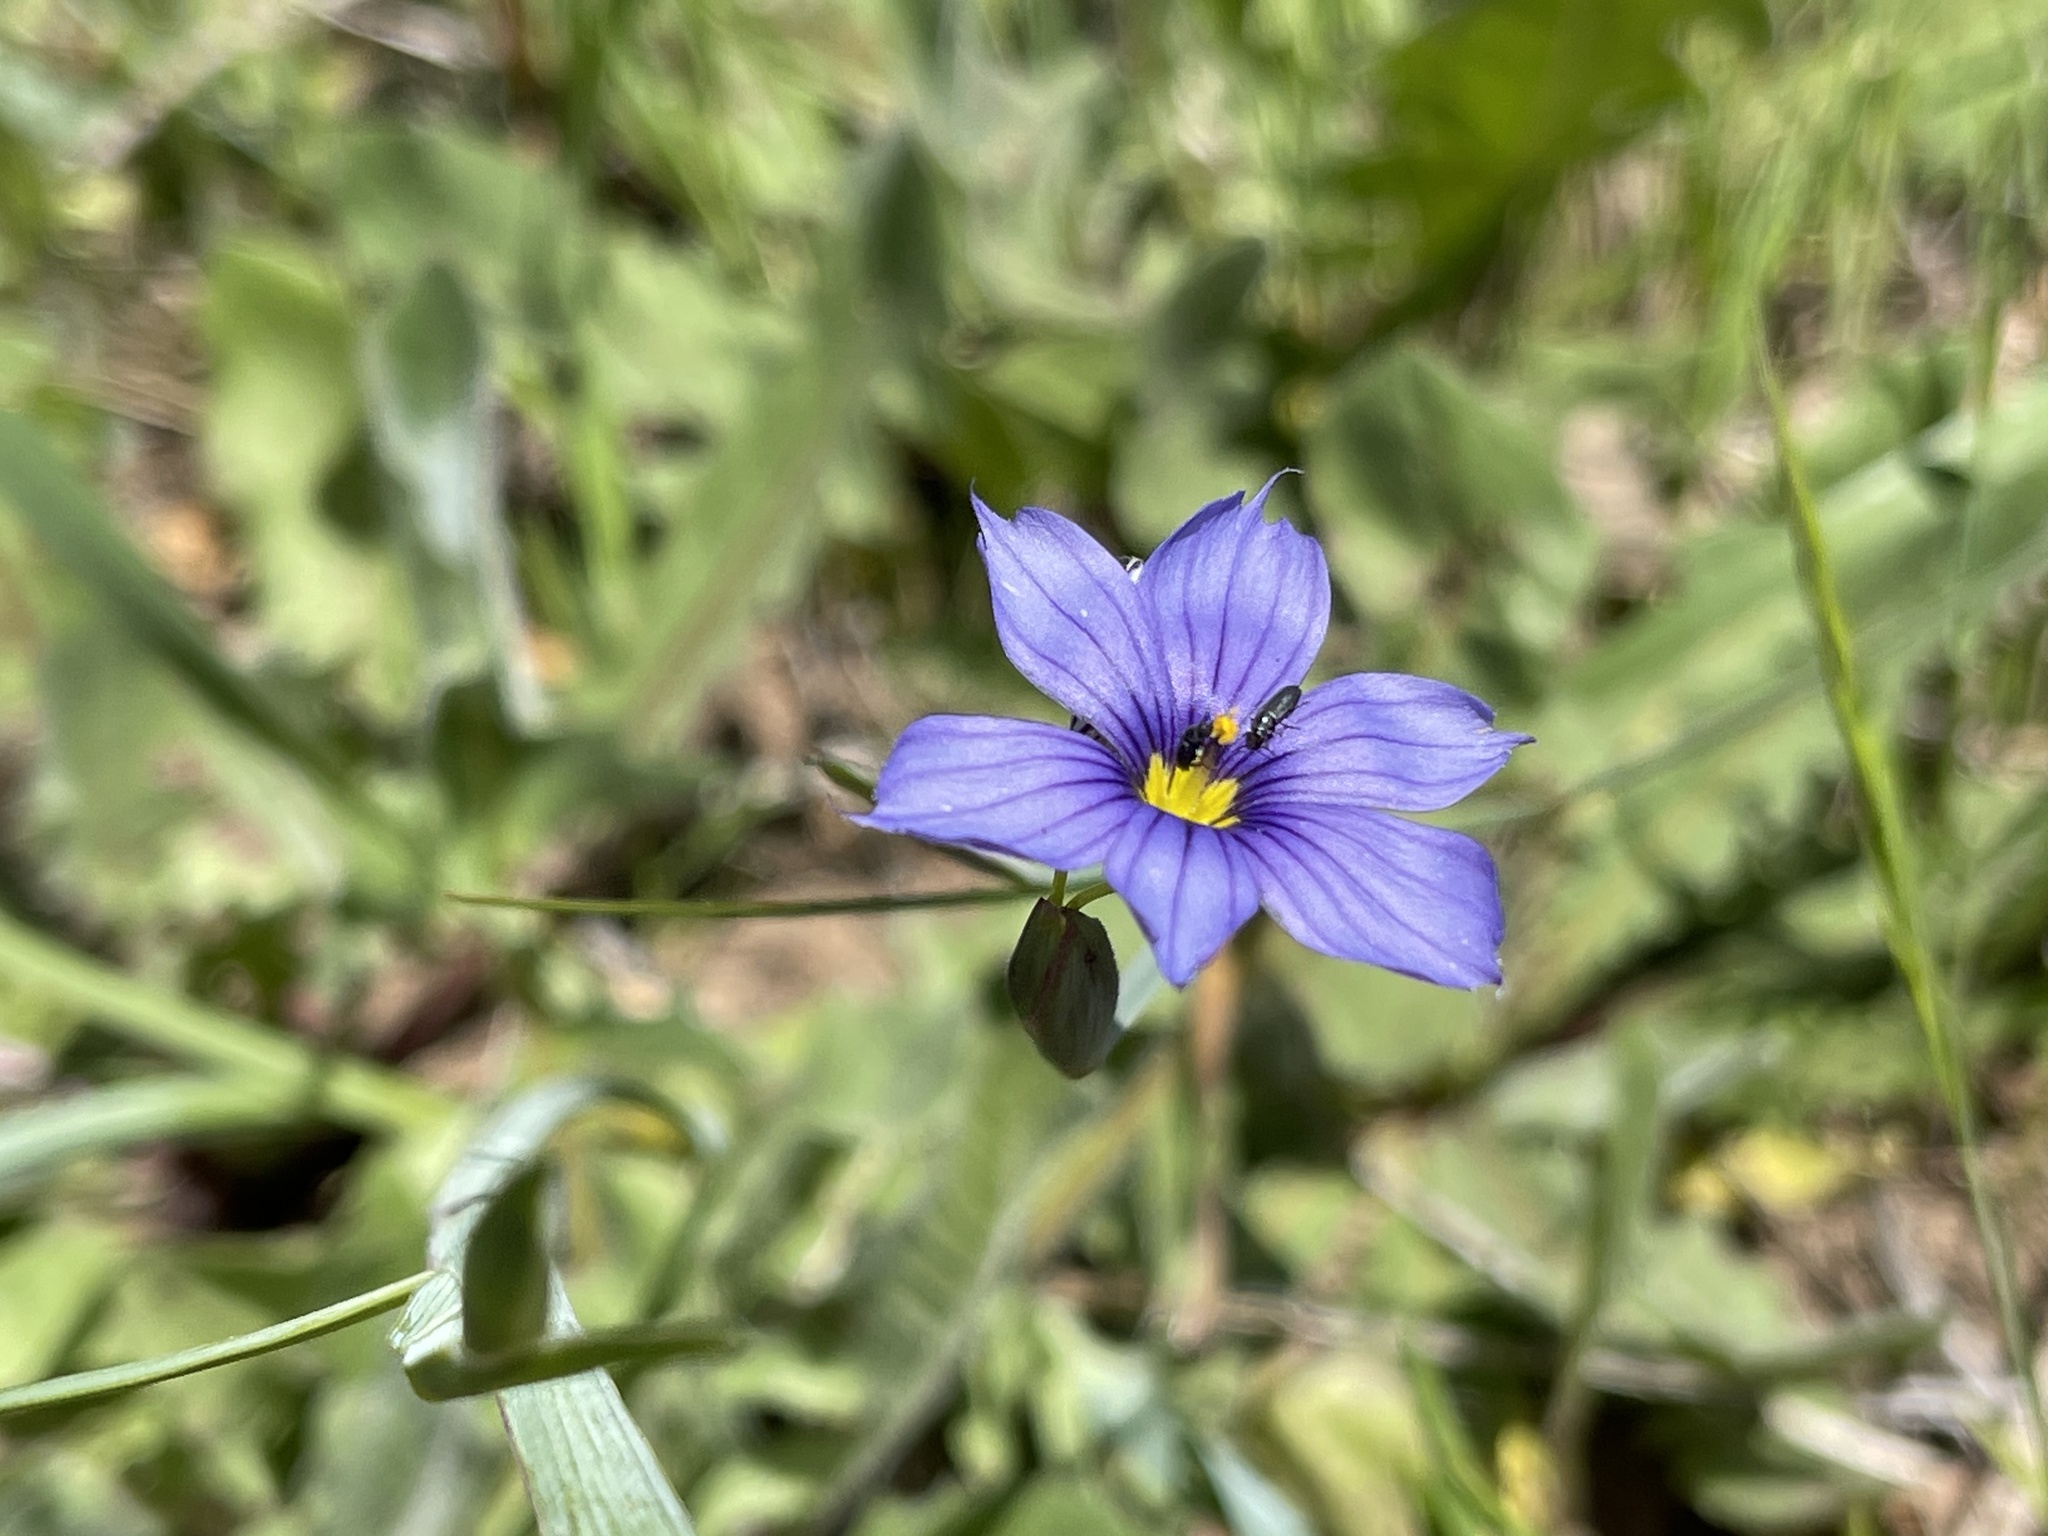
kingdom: Plantae
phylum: Tracheophyta
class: Liliopsida
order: Asparagales
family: Iridaceae
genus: Sisyrinchium
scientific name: Sisyrinchium bellum
